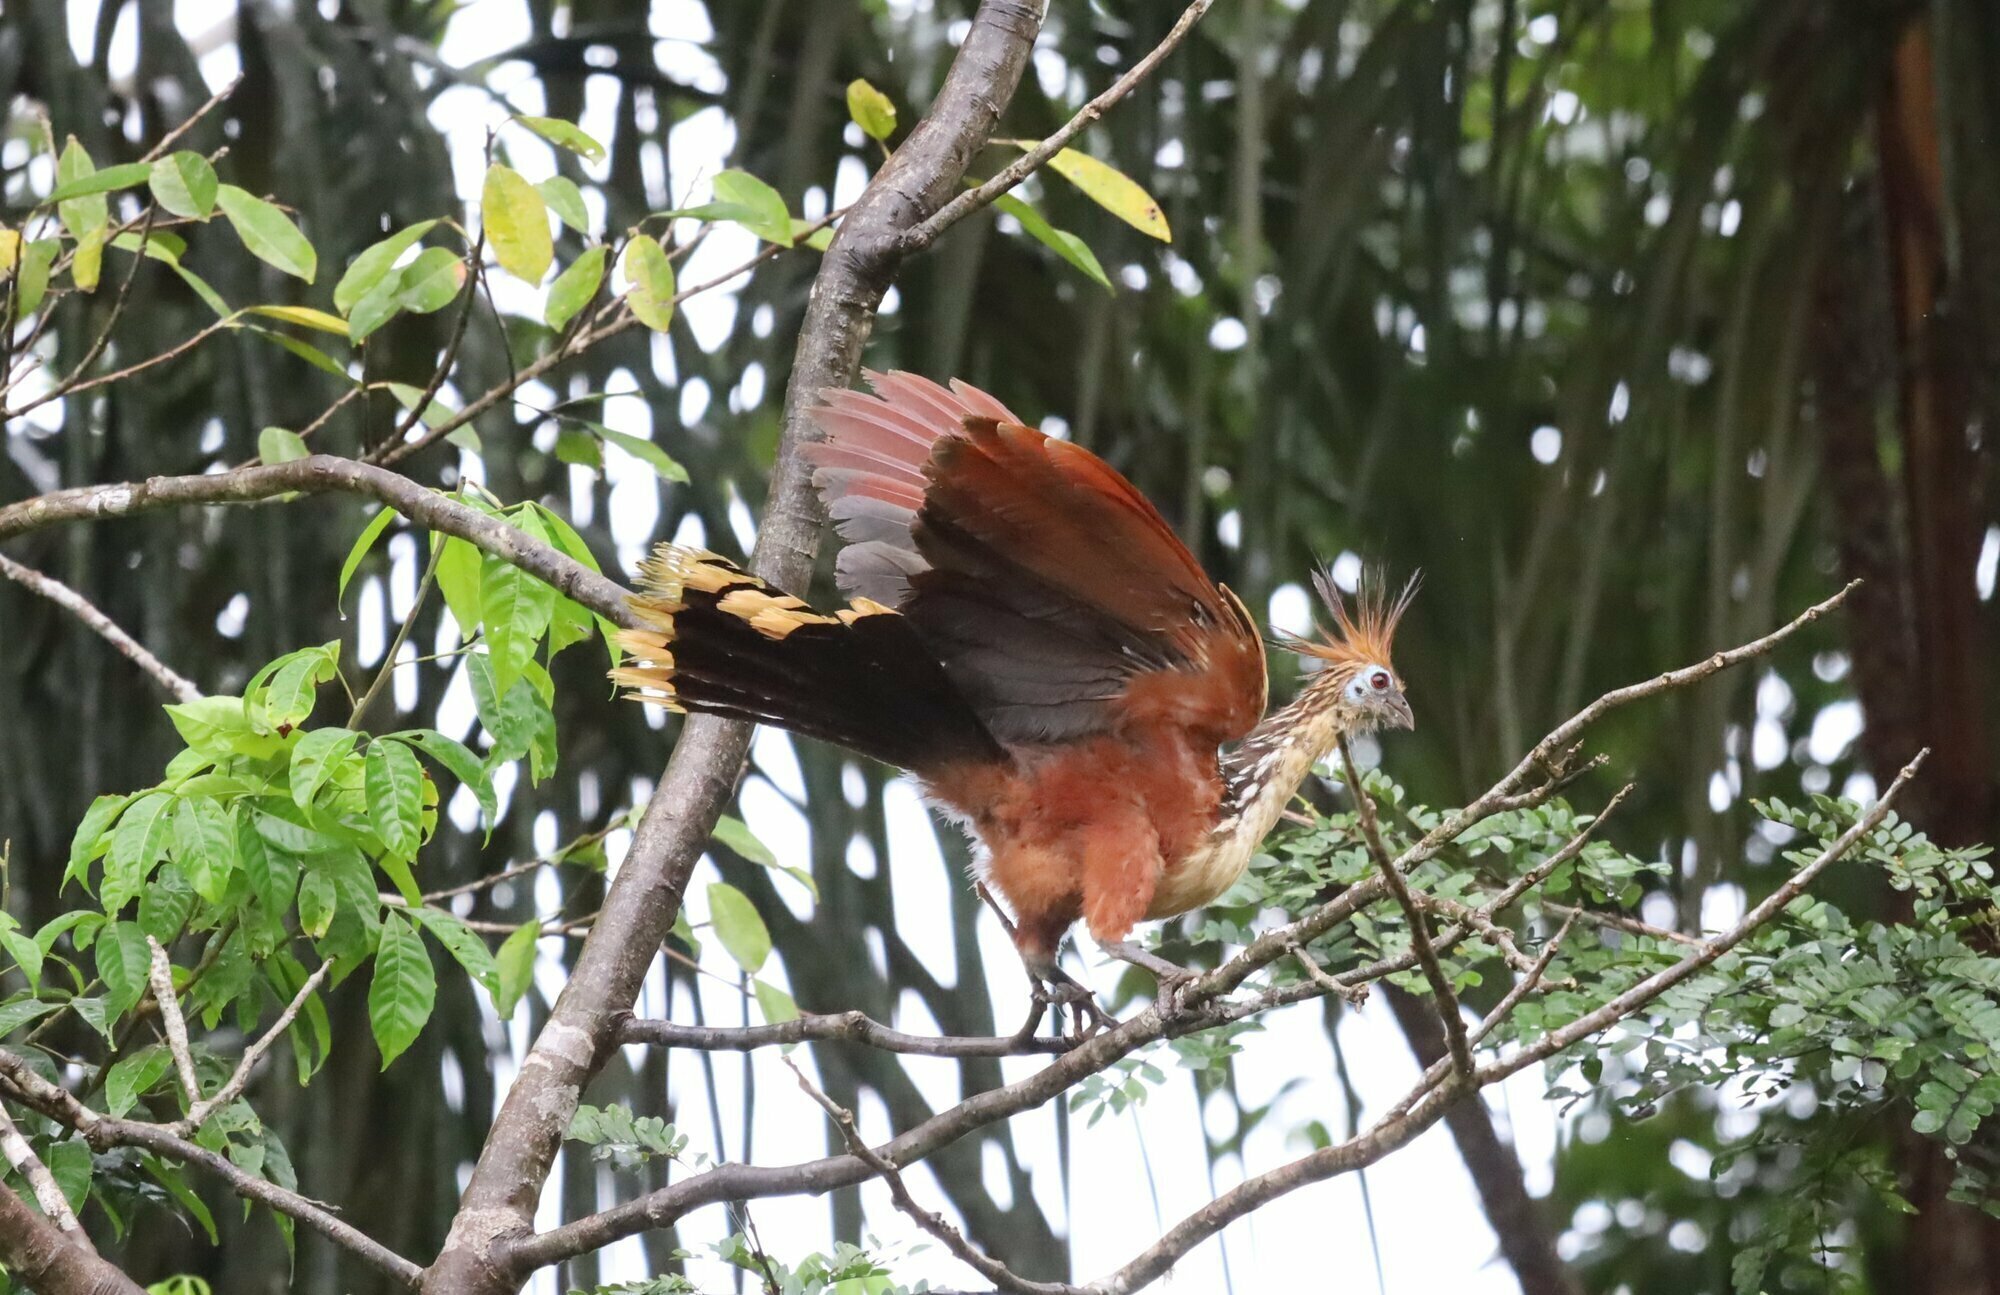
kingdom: Animalia
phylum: Chordata
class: Aves
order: Opisthocomiformes
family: Opisthocomidae
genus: Opisthocomus
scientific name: Opisthocomus hoazin
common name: Hoatzin
